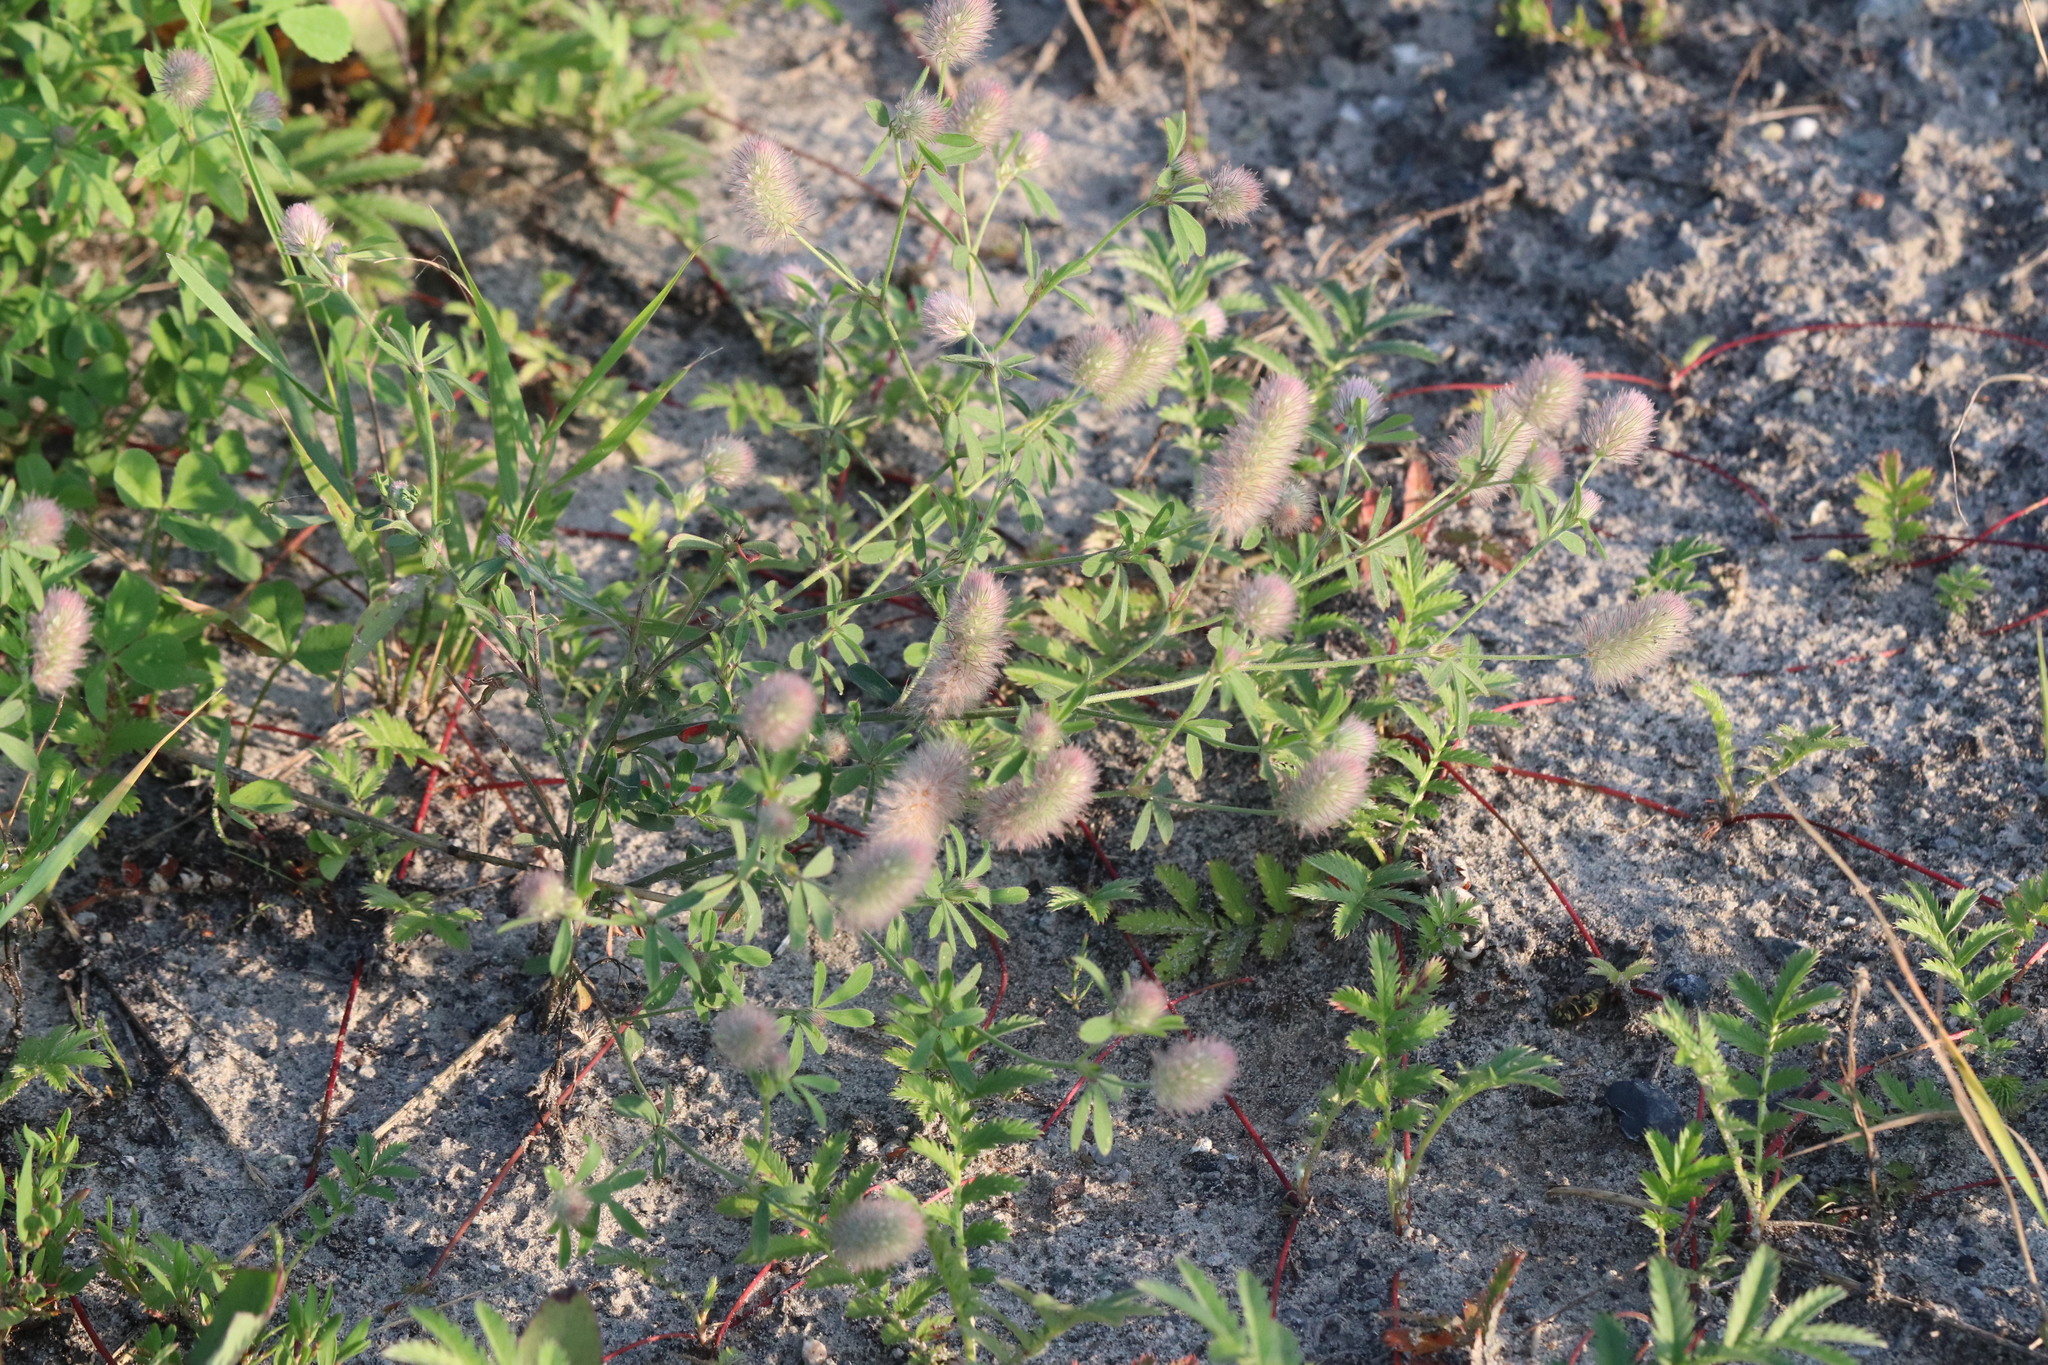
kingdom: Plantae
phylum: Tracheophyta
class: Magnoliopsida
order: Fabales
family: Fabaceae
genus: Trifolium
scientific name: Trifolium arvense
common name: Hare's-foot clover
